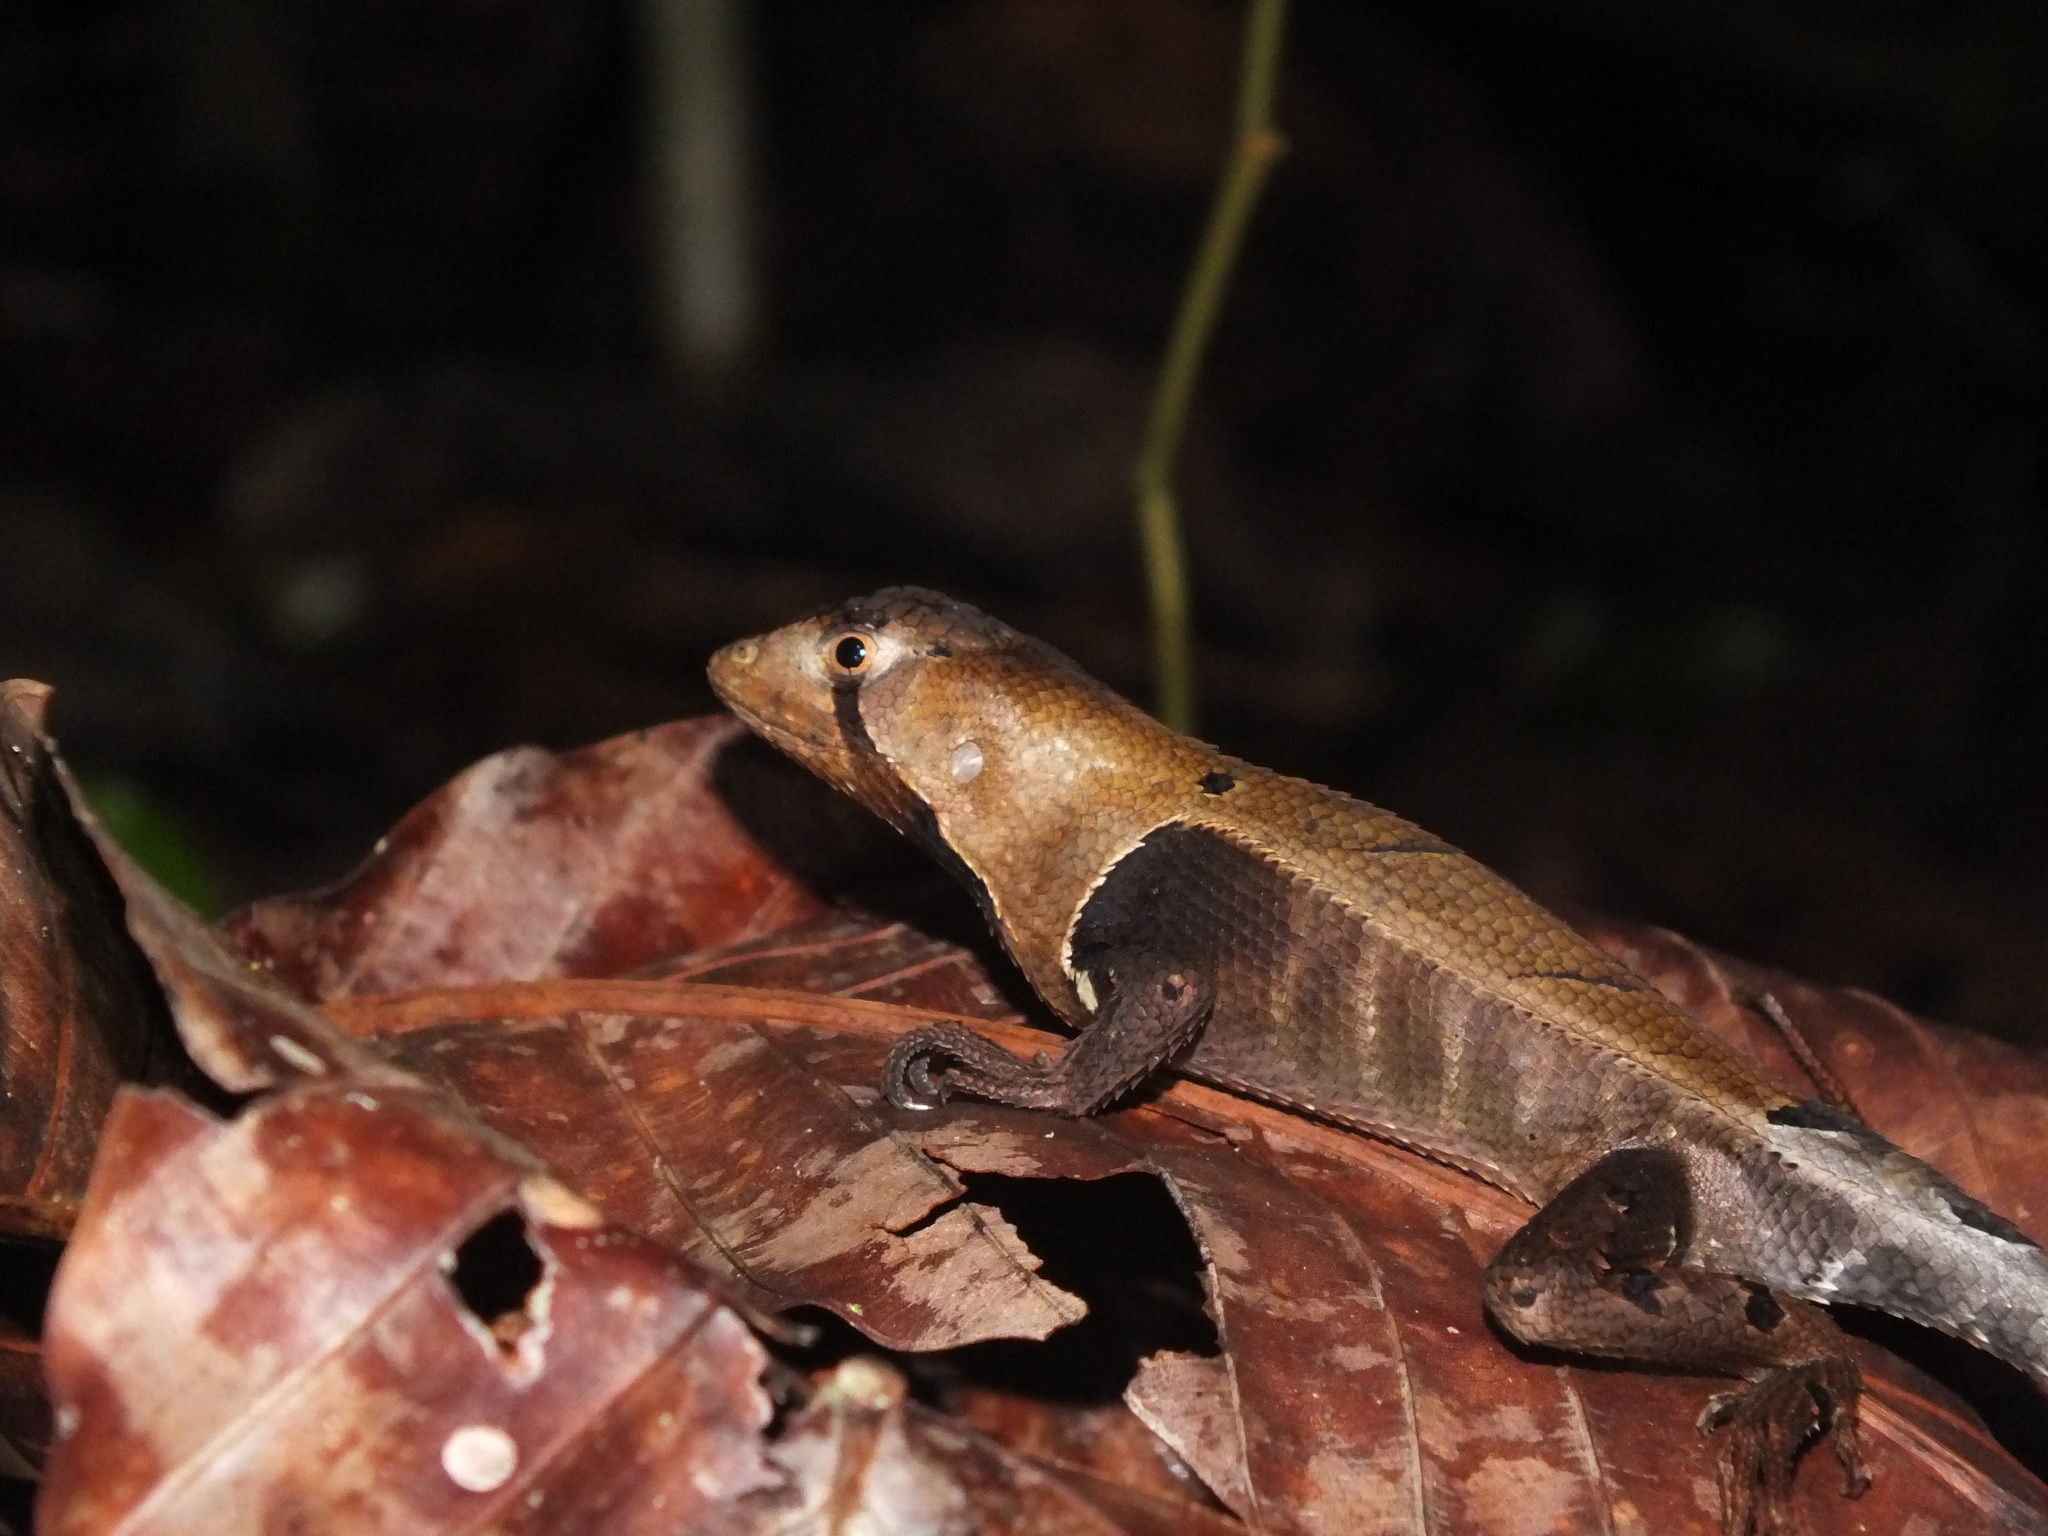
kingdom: Animalia
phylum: Chordata
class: Squamata
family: Tropiduridae
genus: Stenocercus
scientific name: Stenocercus fimbriatus
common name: Western leaf lizard
